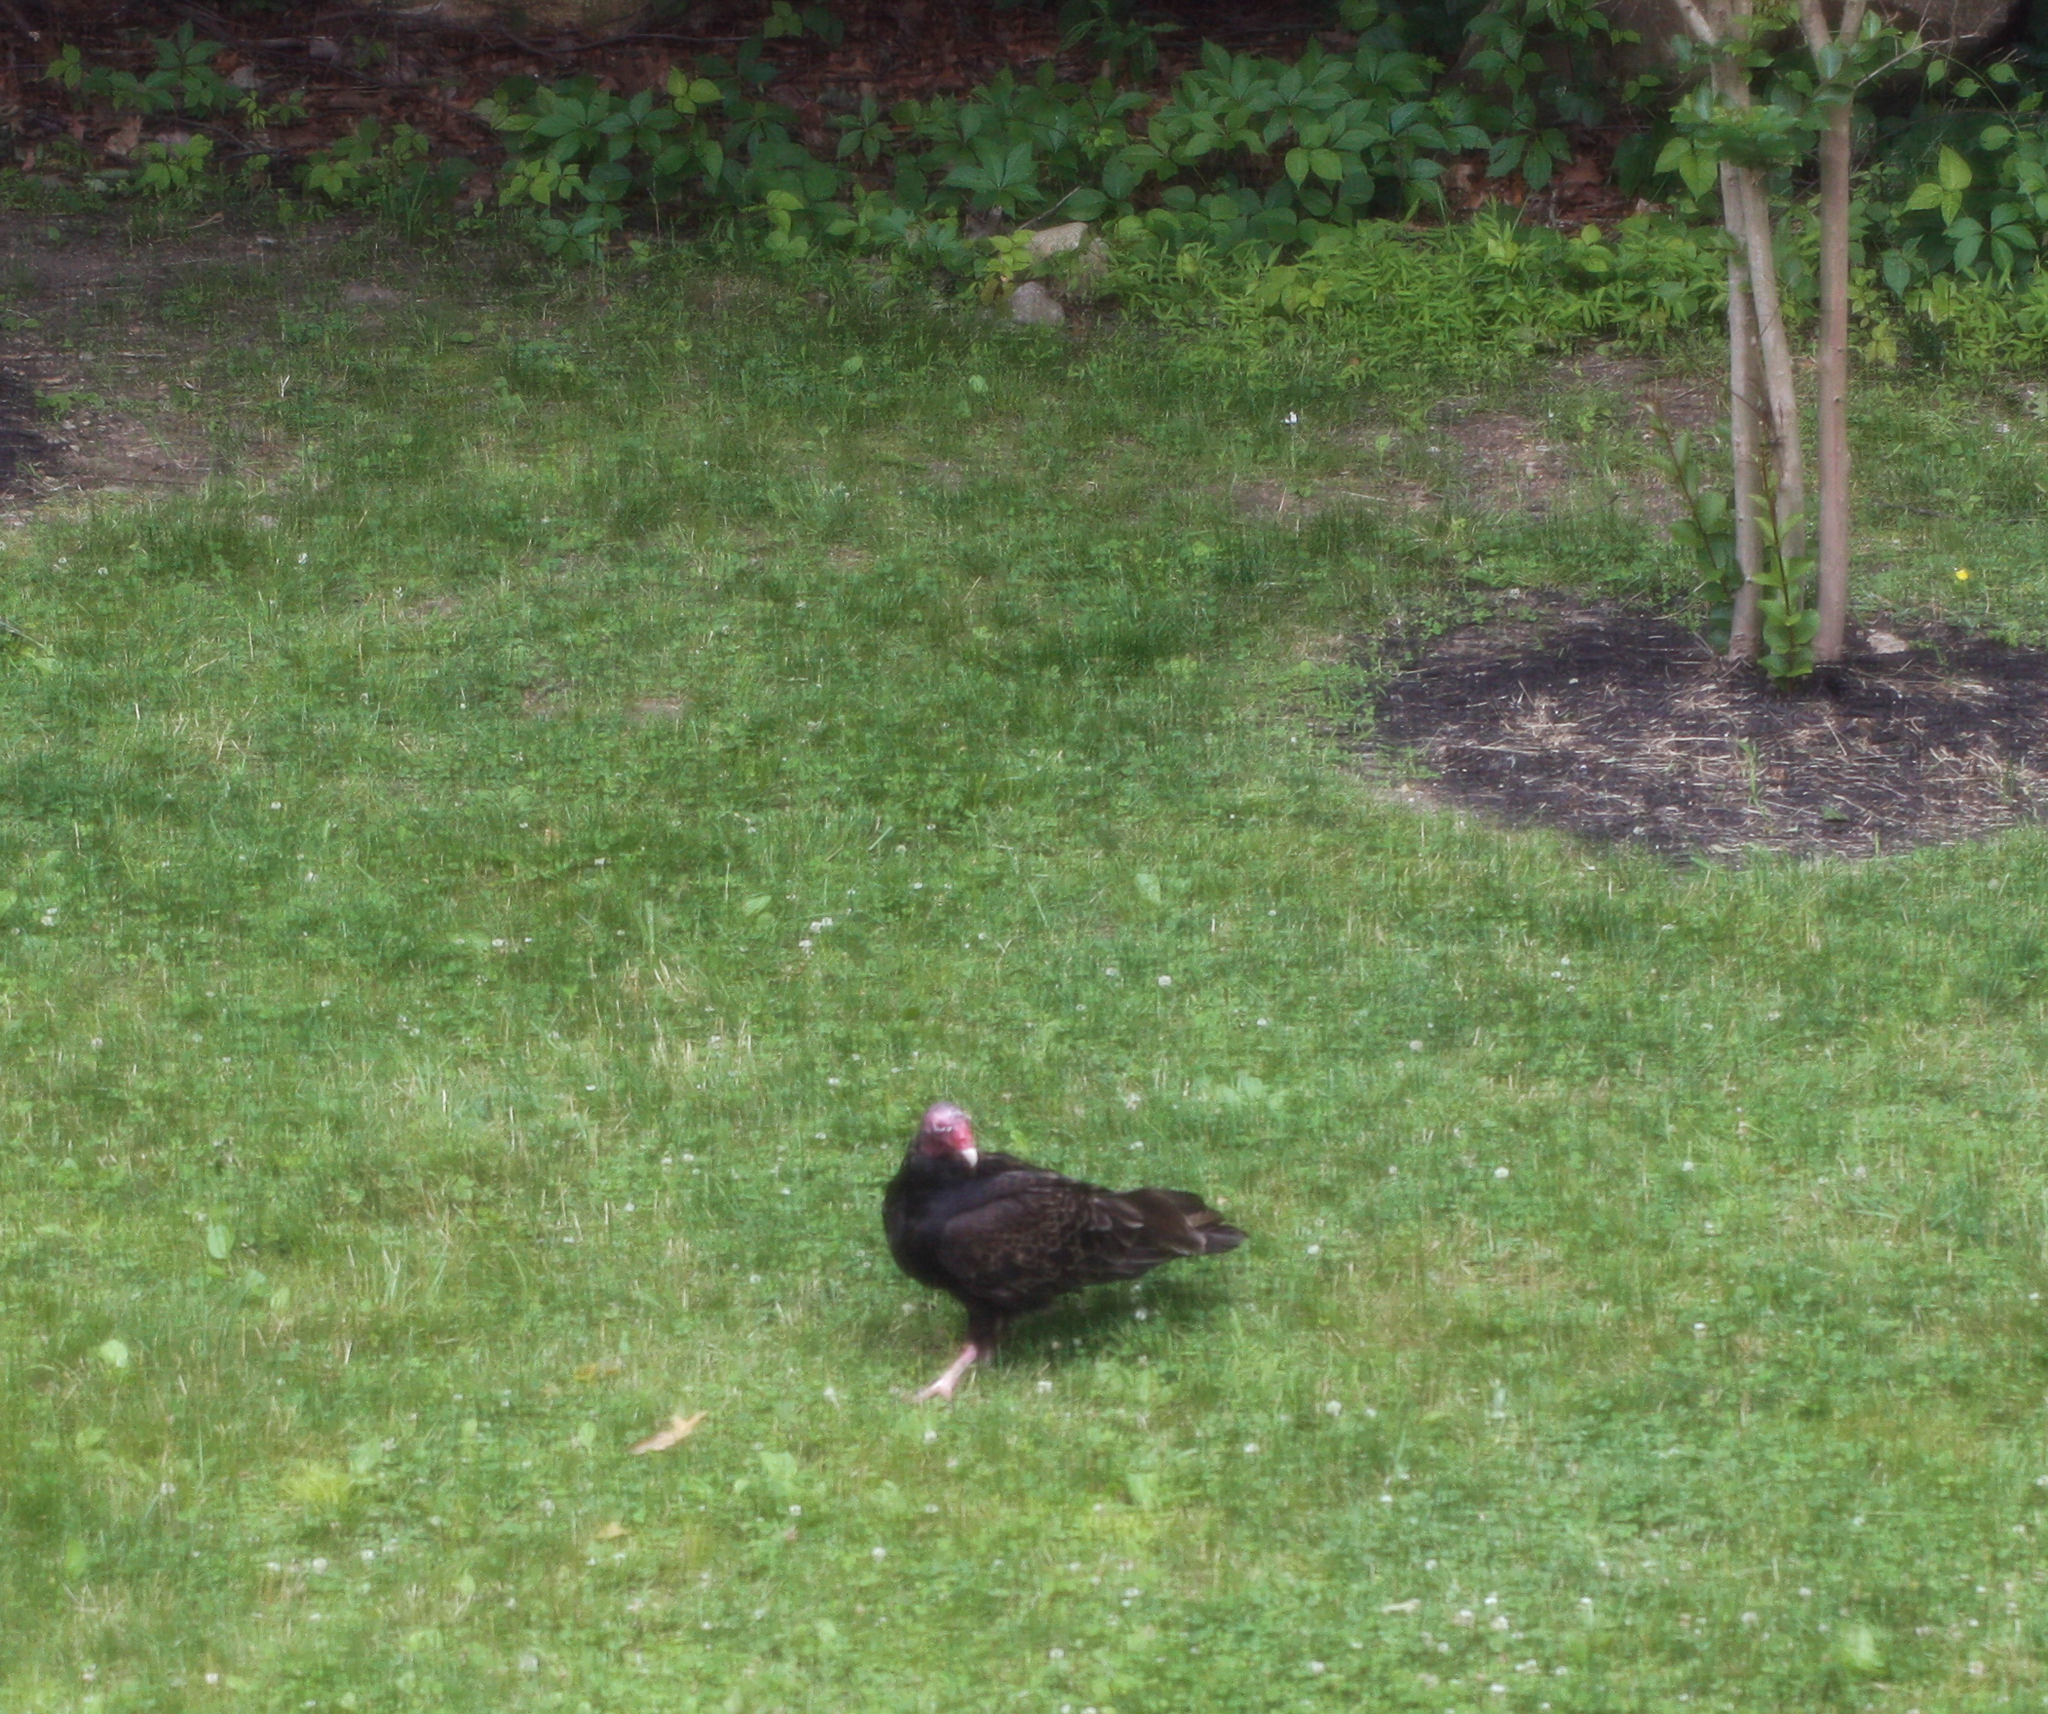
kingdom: Animalia
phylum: Chordata
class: Aves
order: Accipitriformes
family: Cathartidae
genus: Cathartes
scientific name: Cathartes aura
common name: Turkey vulture
